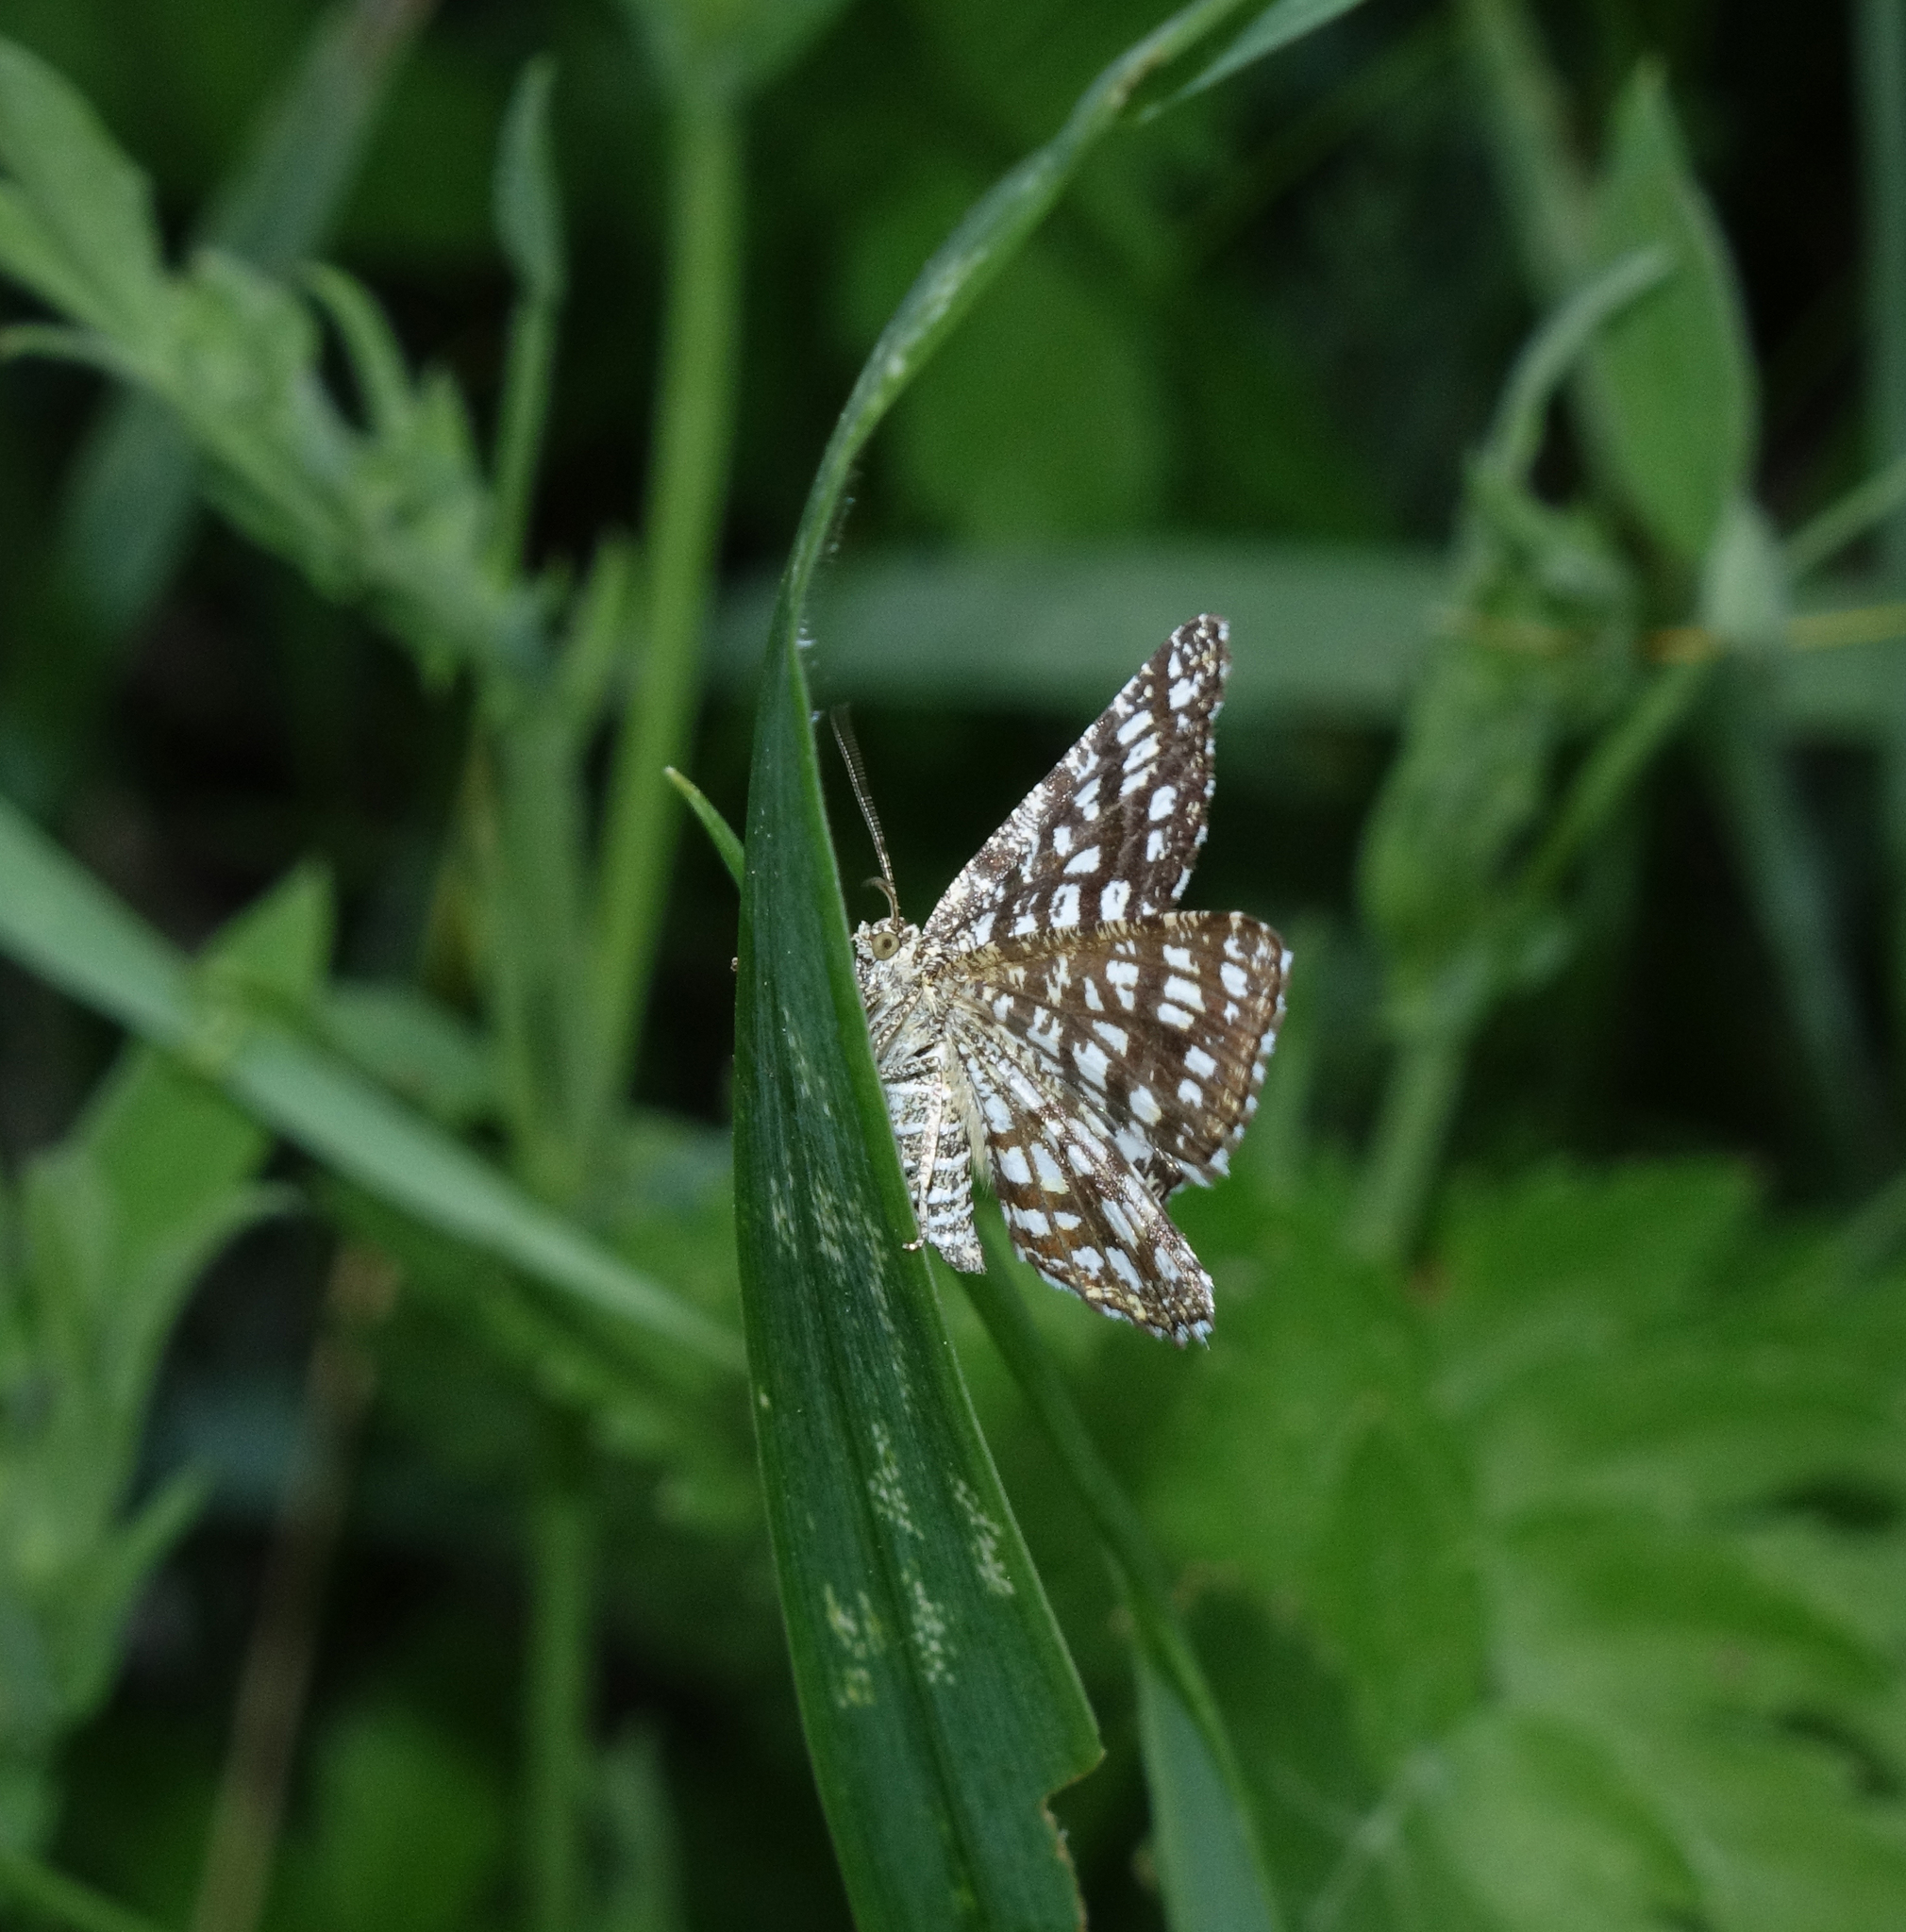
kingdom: Animalia
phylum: Arthropoda
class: Insecta
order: Lepidoptera
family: Geometridae
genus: Chiasmia
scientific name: Chiasmia clathrata
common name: Latticed heath
